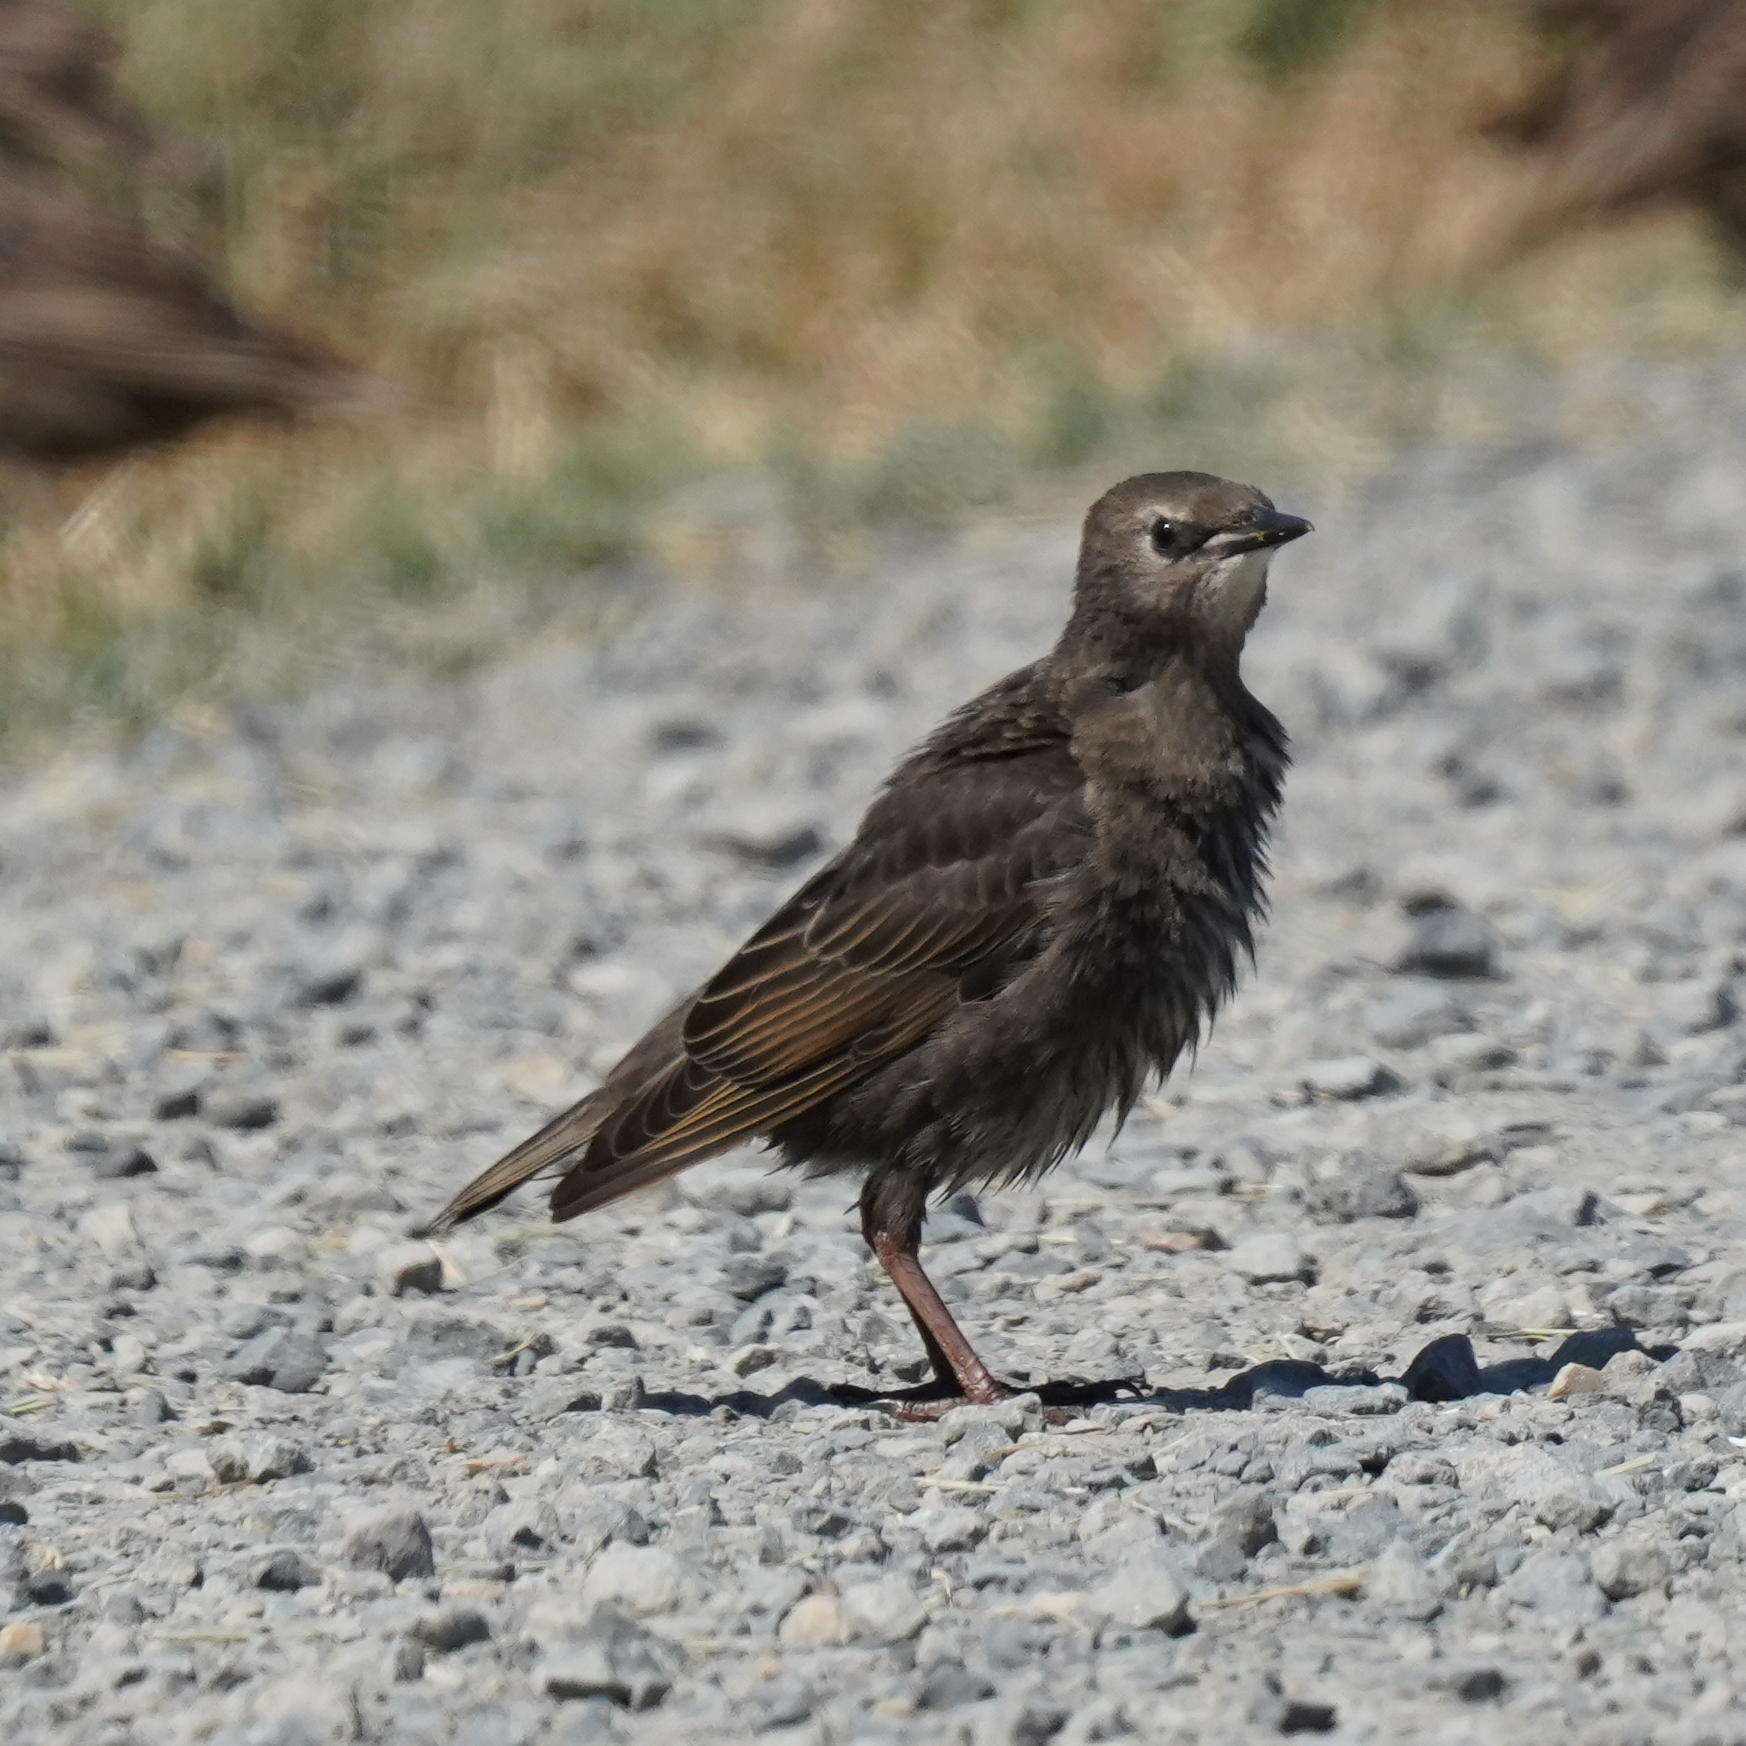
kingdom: Animalia
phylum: Chordata
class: Aves
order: Passeriformes
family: Icteridae
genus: Euphagus
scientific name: Euphagus cyanocephalus
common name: Brewer's blackbird
